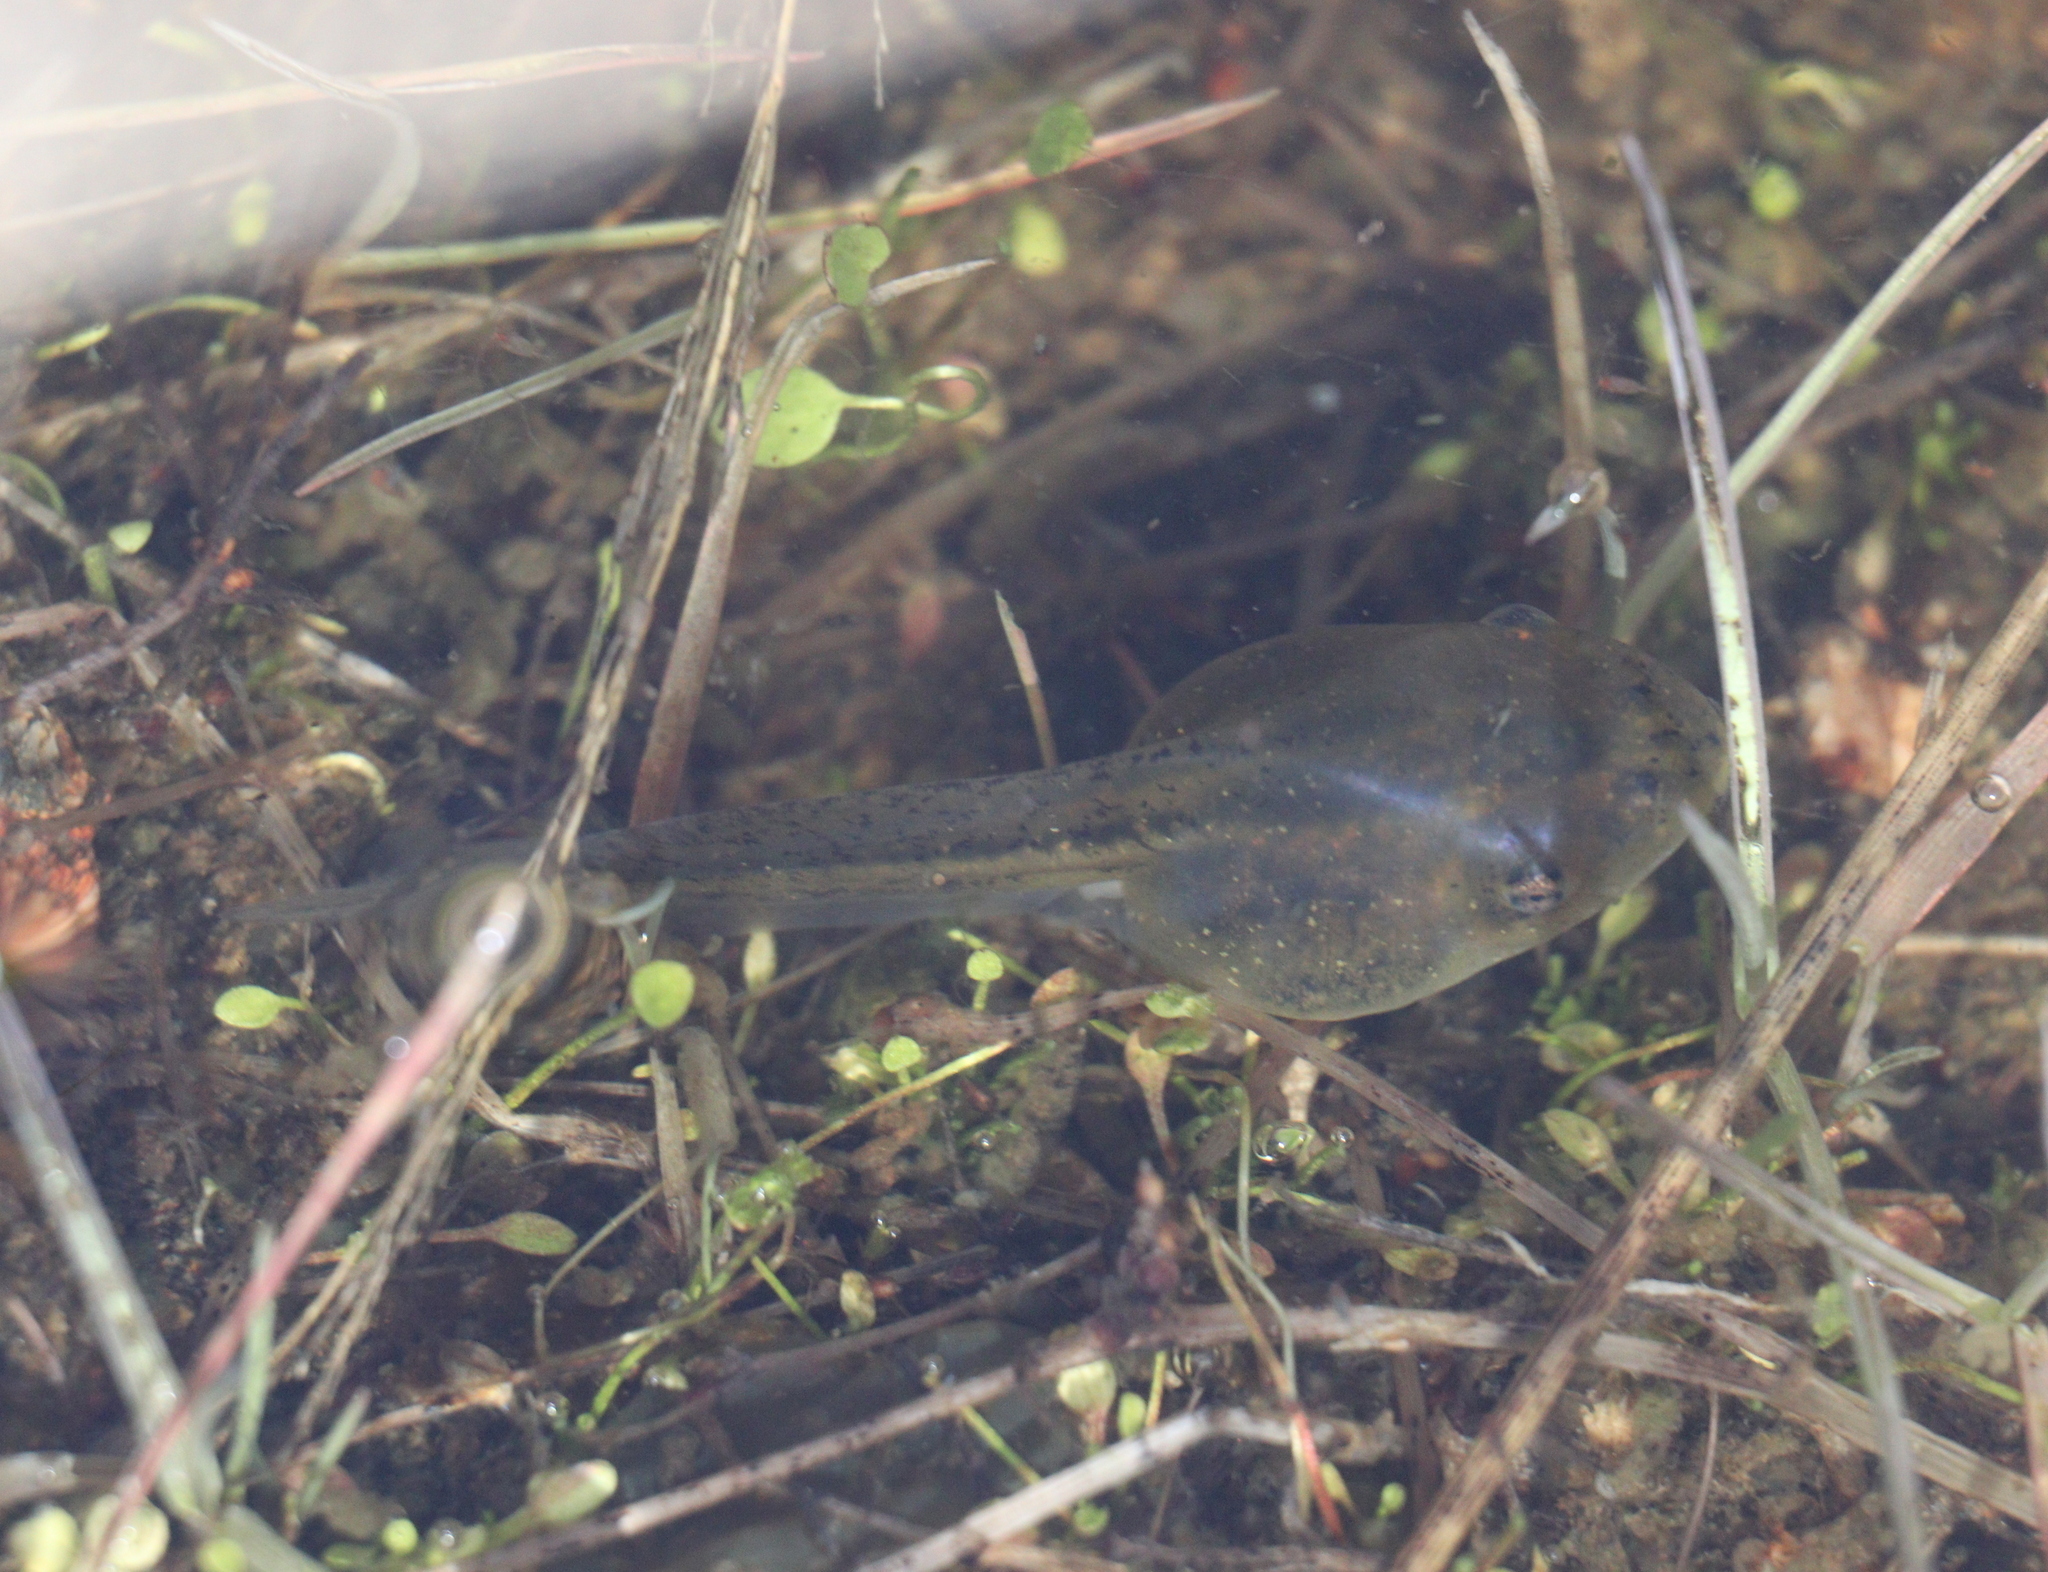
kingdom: Animalia
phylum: Chordata
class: Amphibia
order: Anura
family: Pelobatidae
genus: Pelobates
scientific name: Pelobates cultripes
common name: Western spadefoot
